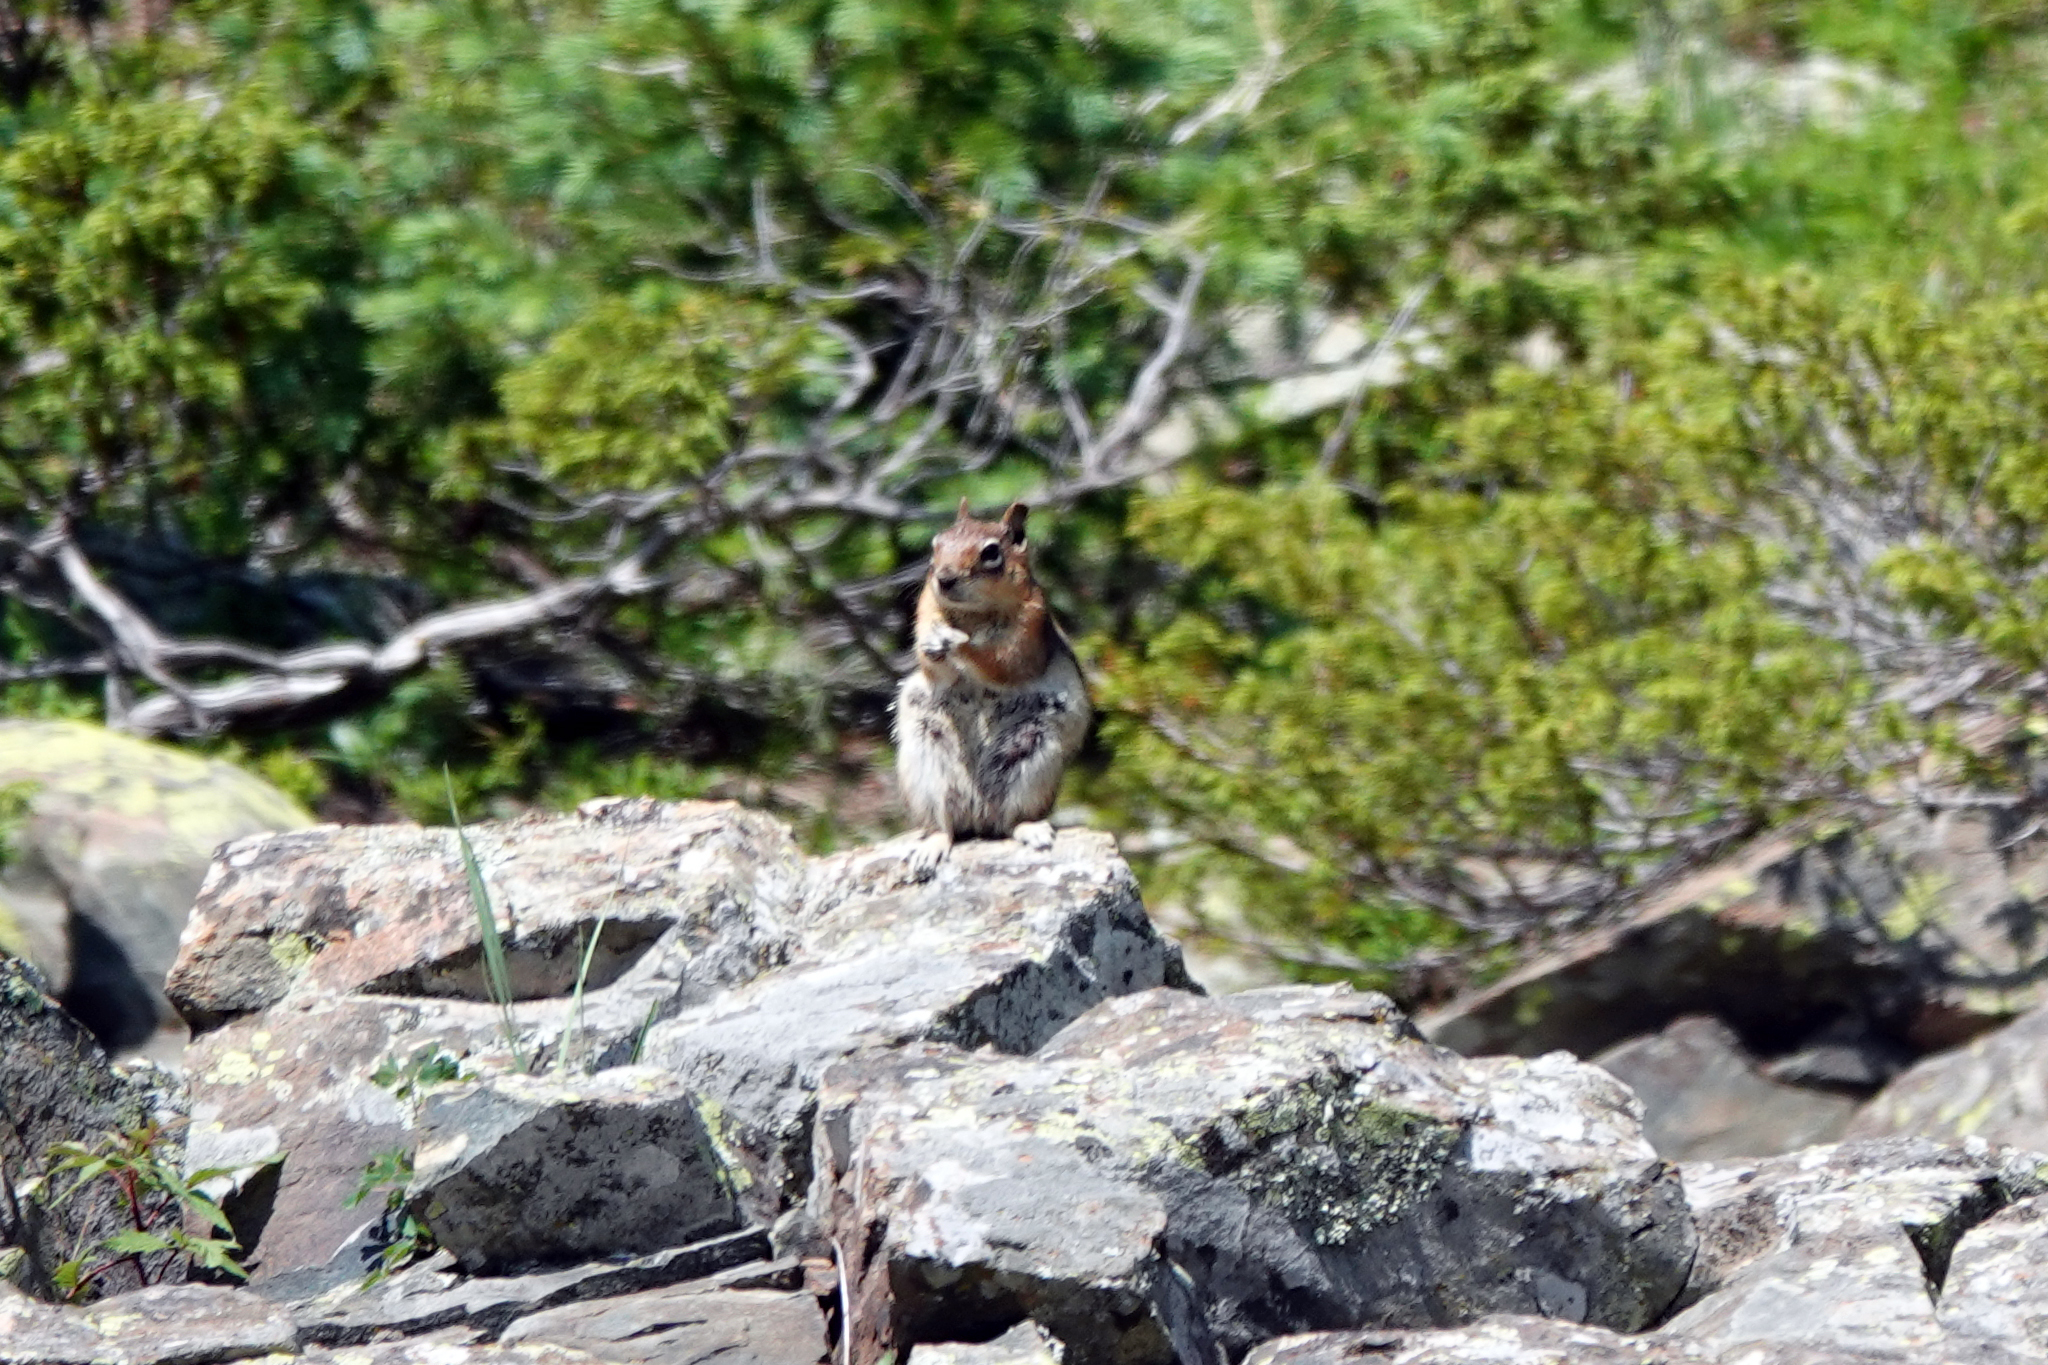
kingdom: Animalia
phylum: Chordata
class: Mammalia
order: Rodentia
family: Sciuridae
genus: Callospermophilus
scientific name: Callospermophilus lateralis
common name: Golden-mantled ground squirrel
